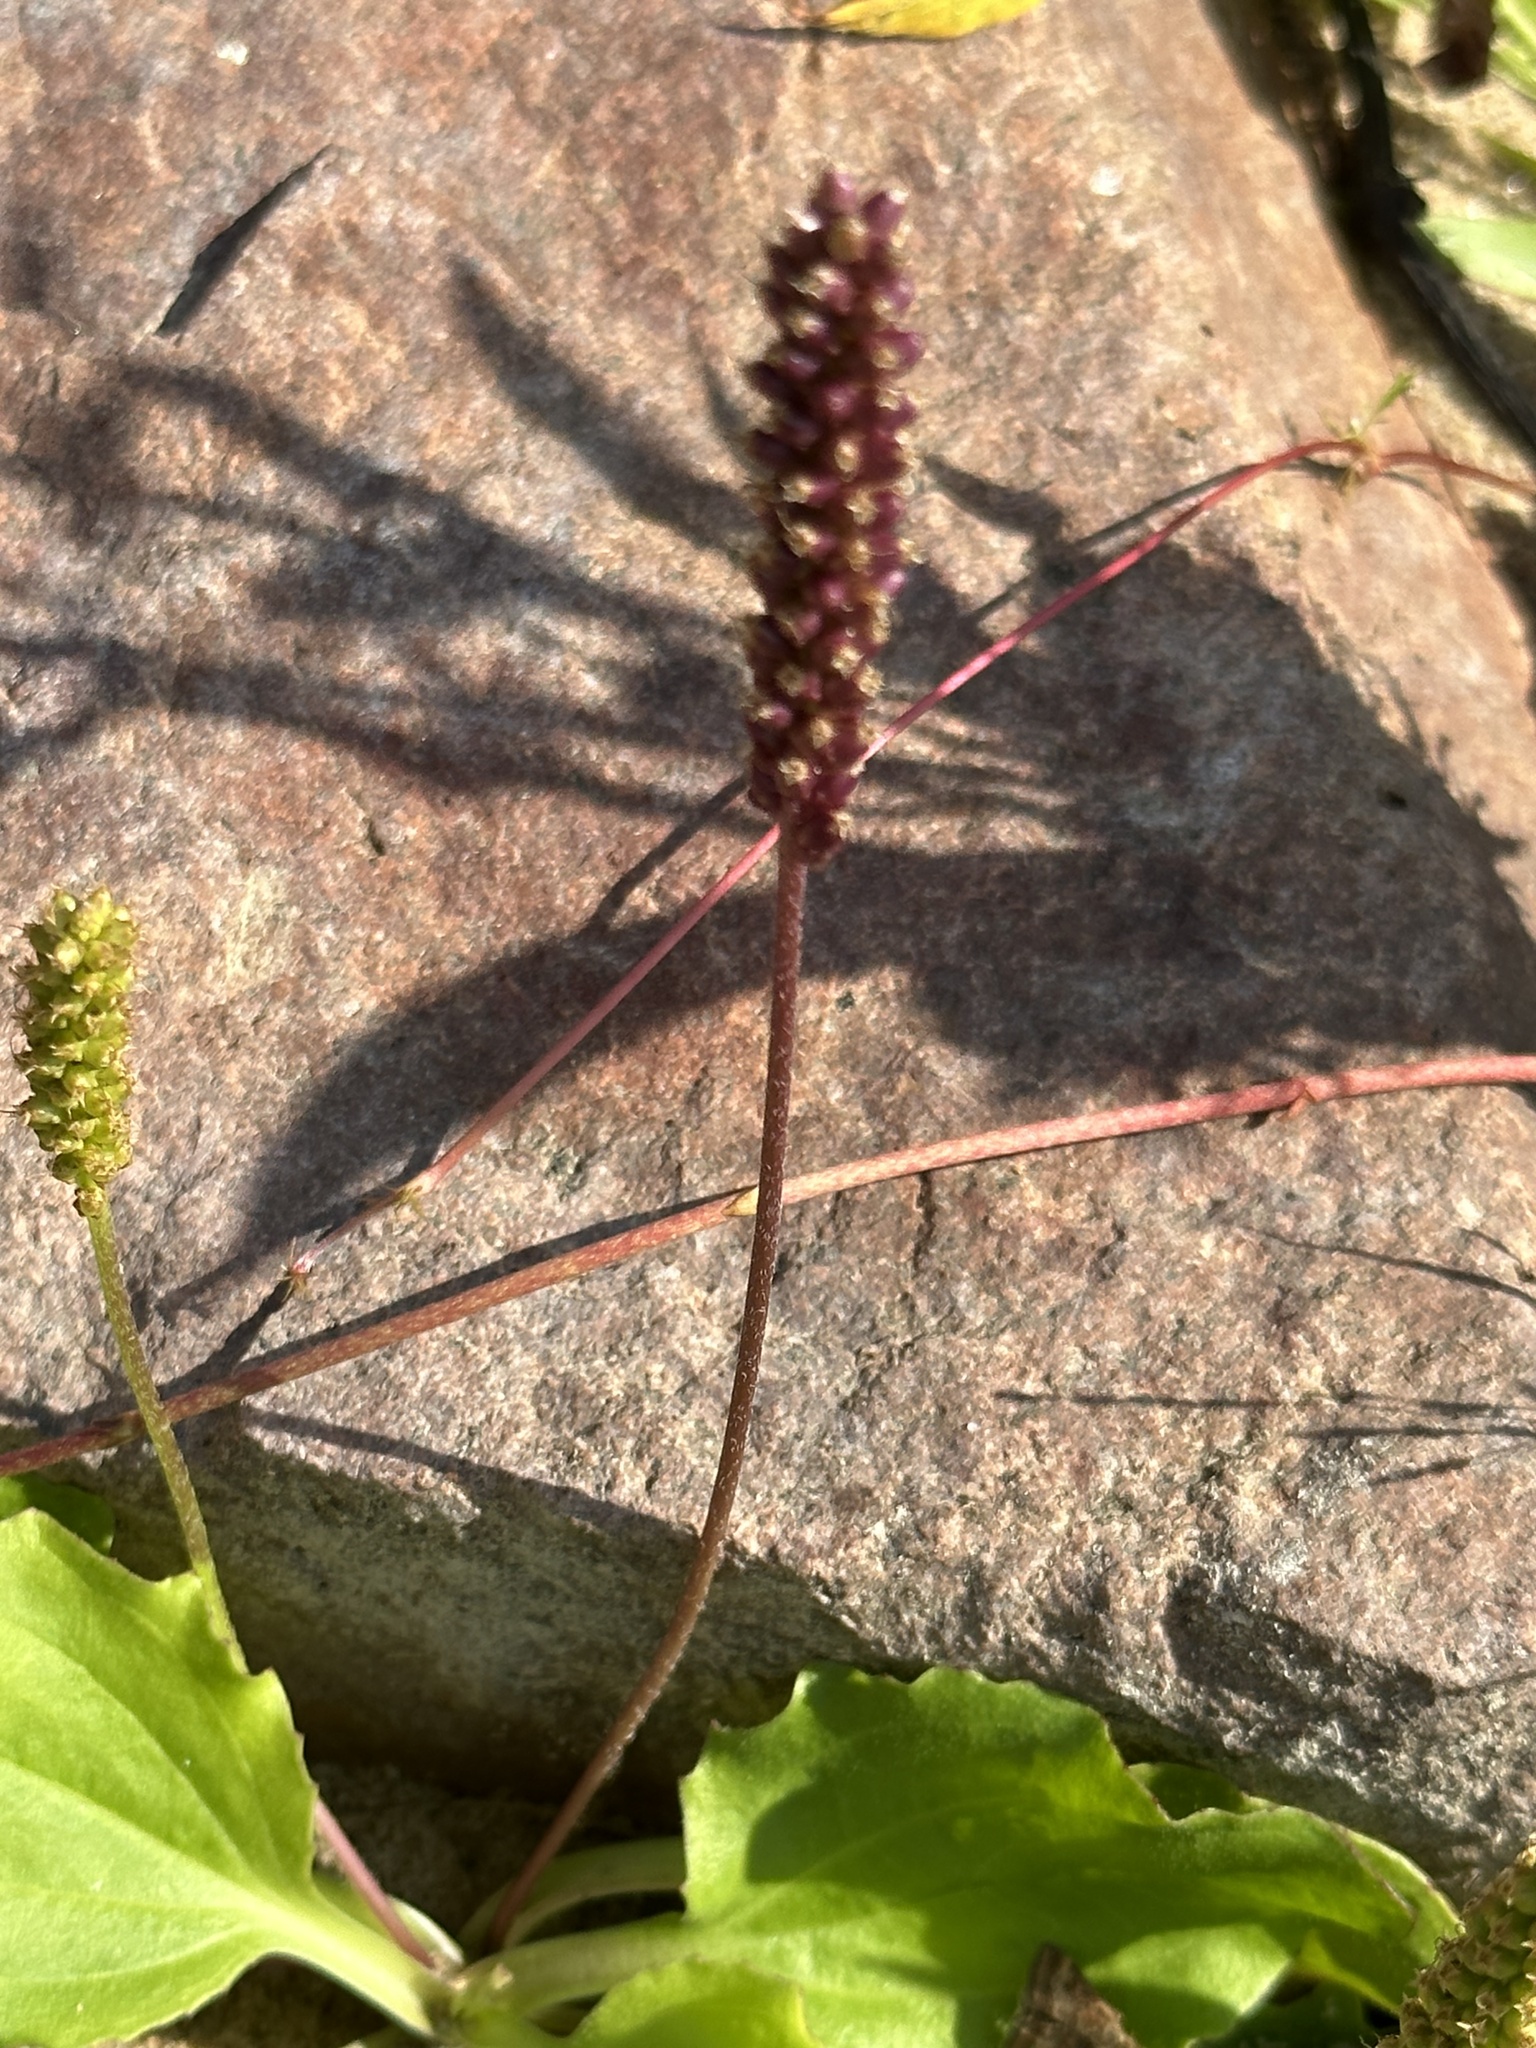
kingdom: Plantae
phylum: Tracheophyta
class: Magnoliopsida
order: Lamiales
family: Plantaginaceae
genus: Plantago
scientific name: Plantago major
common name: Common plantain
